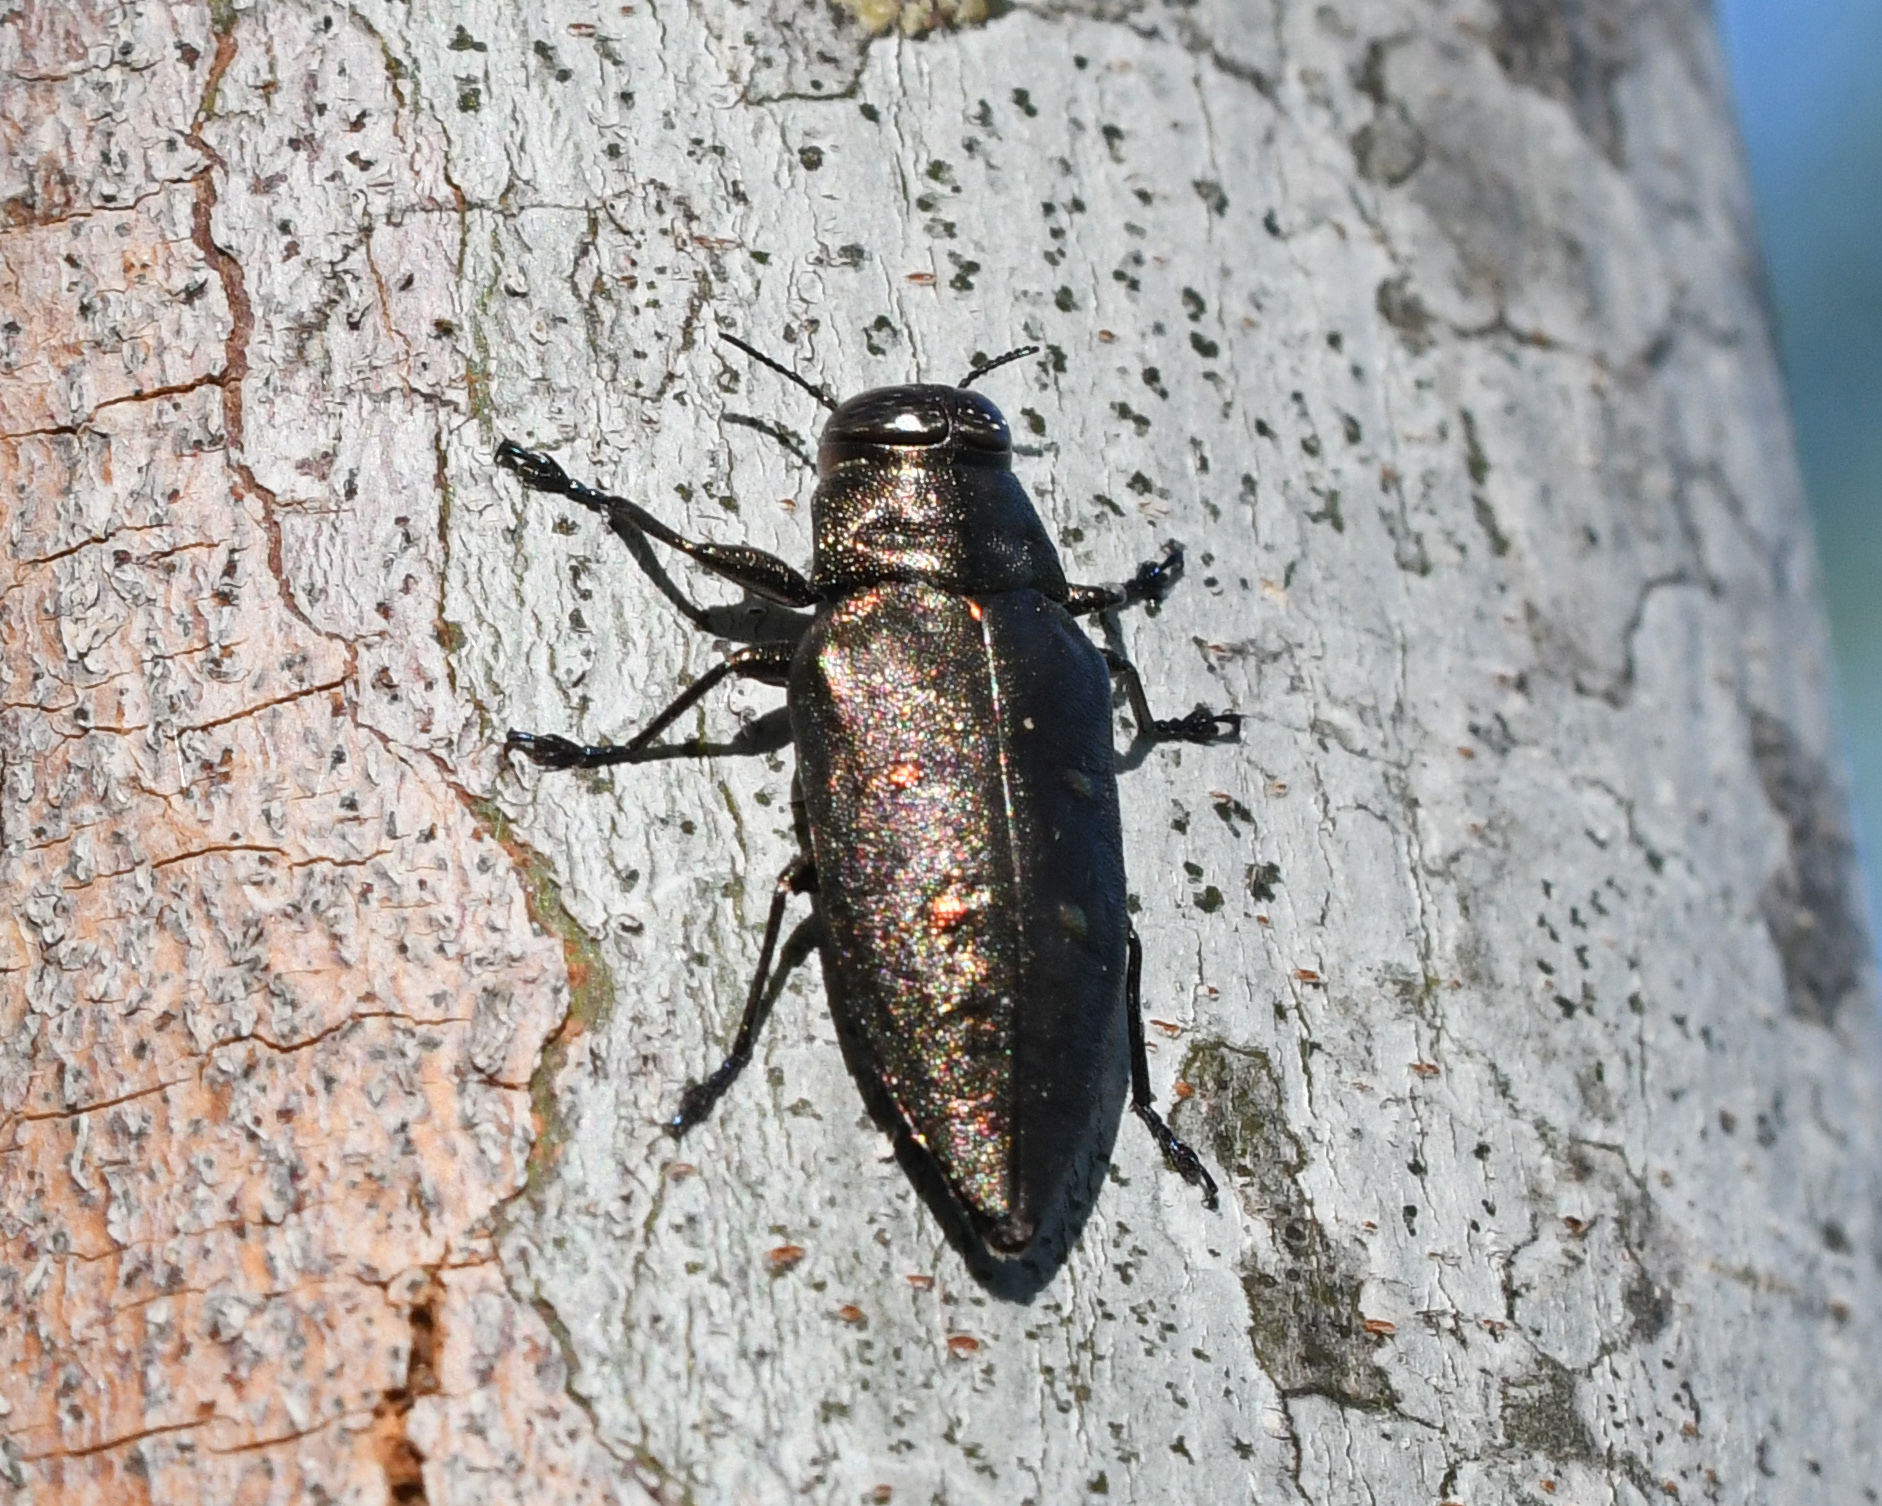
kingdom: Animalia
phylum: Arthropoda
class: Insecta
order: Coleoptera
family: Buprestidae
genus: Actenodes
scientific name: Actenodes bellulus
